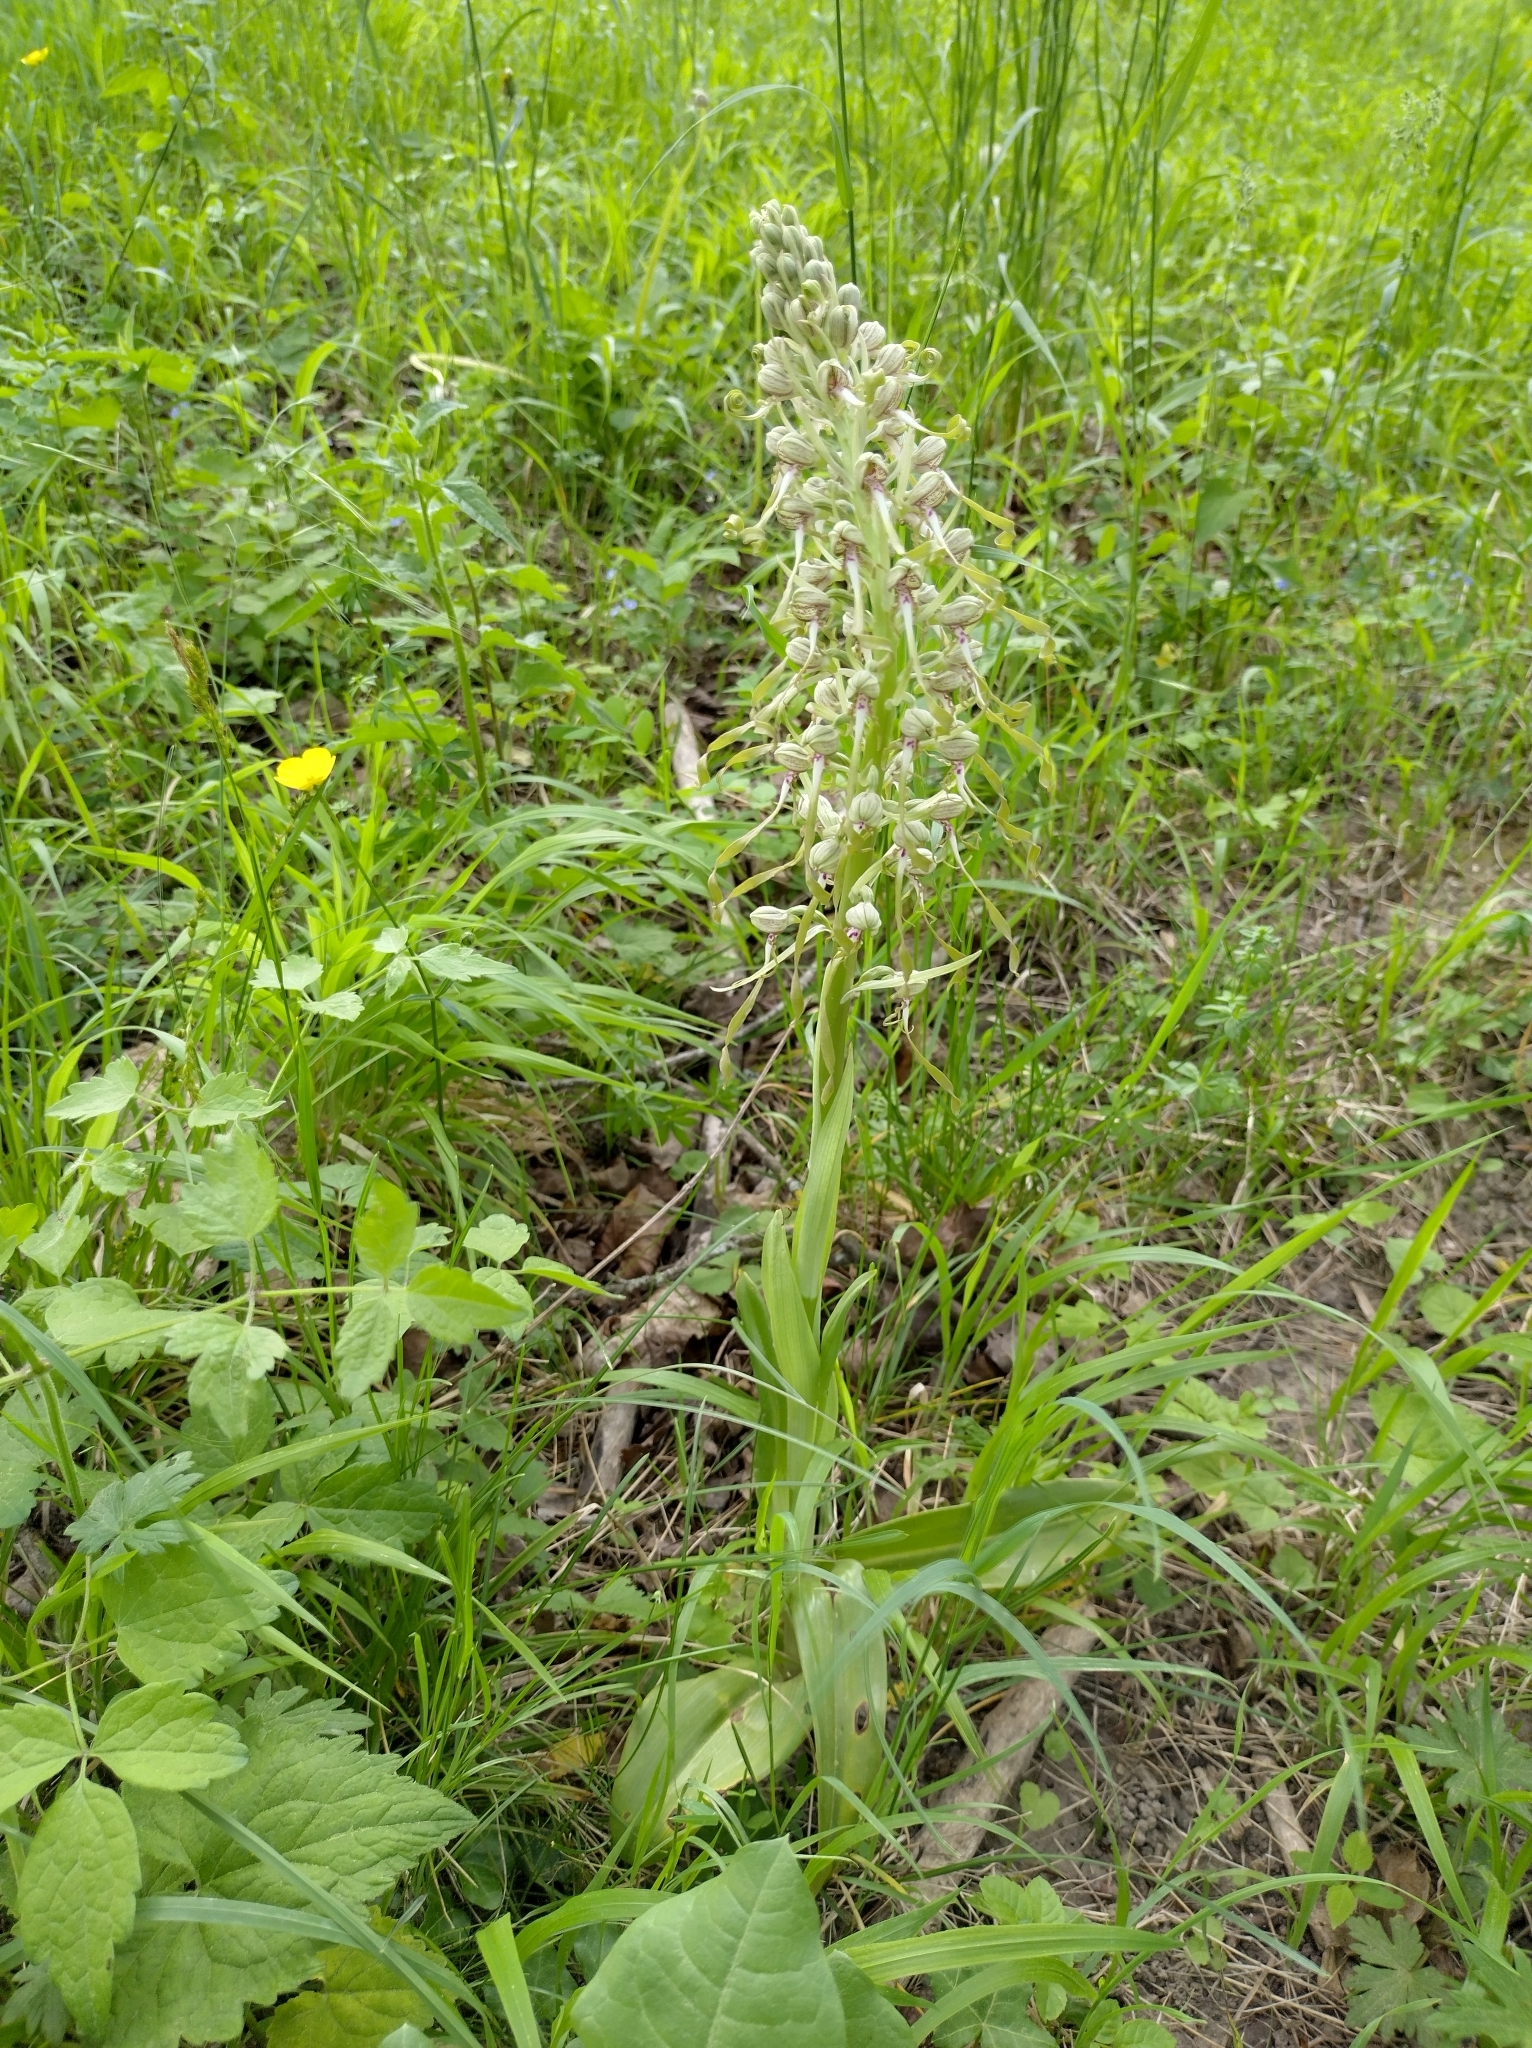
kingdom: Plantae
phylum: Tracheophyta
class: Liliopsida
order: Asparagales
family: Orchidaceae
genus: Himantoglossum
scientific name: Himantoglossum hircinum
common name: Lizard orchid
